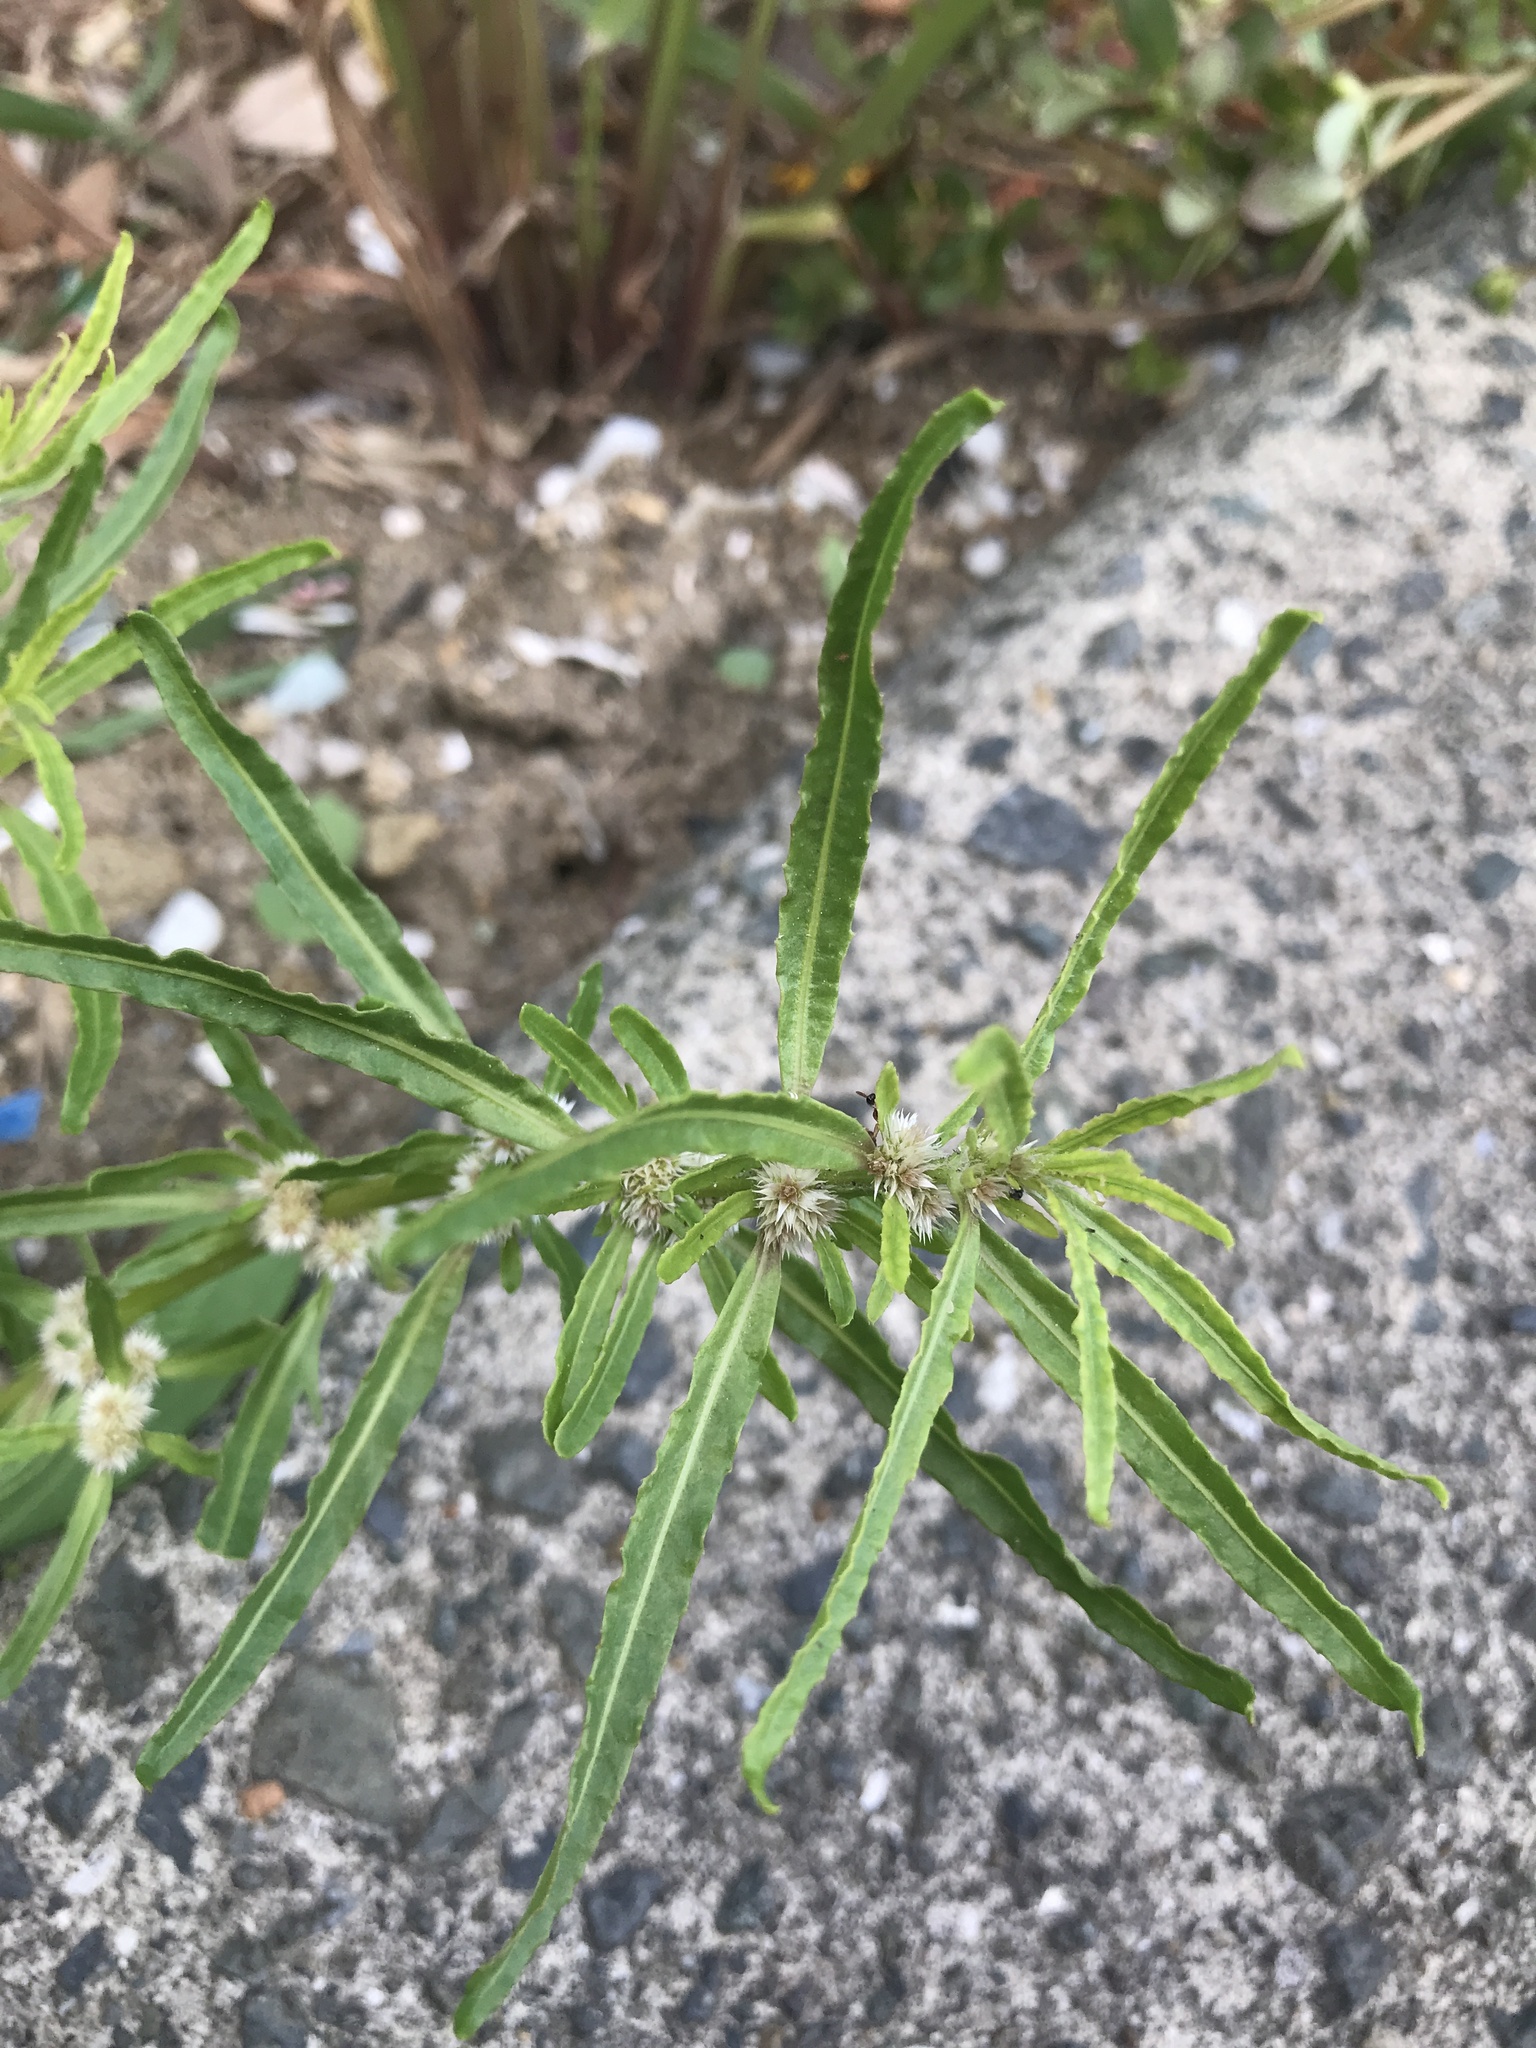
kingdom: Plantae
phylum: Tracheophyta
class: Magnoliopsida
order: Caryophyllales
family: Amaranthaceae
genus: Alternanthera
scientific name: Alternanthera denticulata
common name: Lesser joyweed
